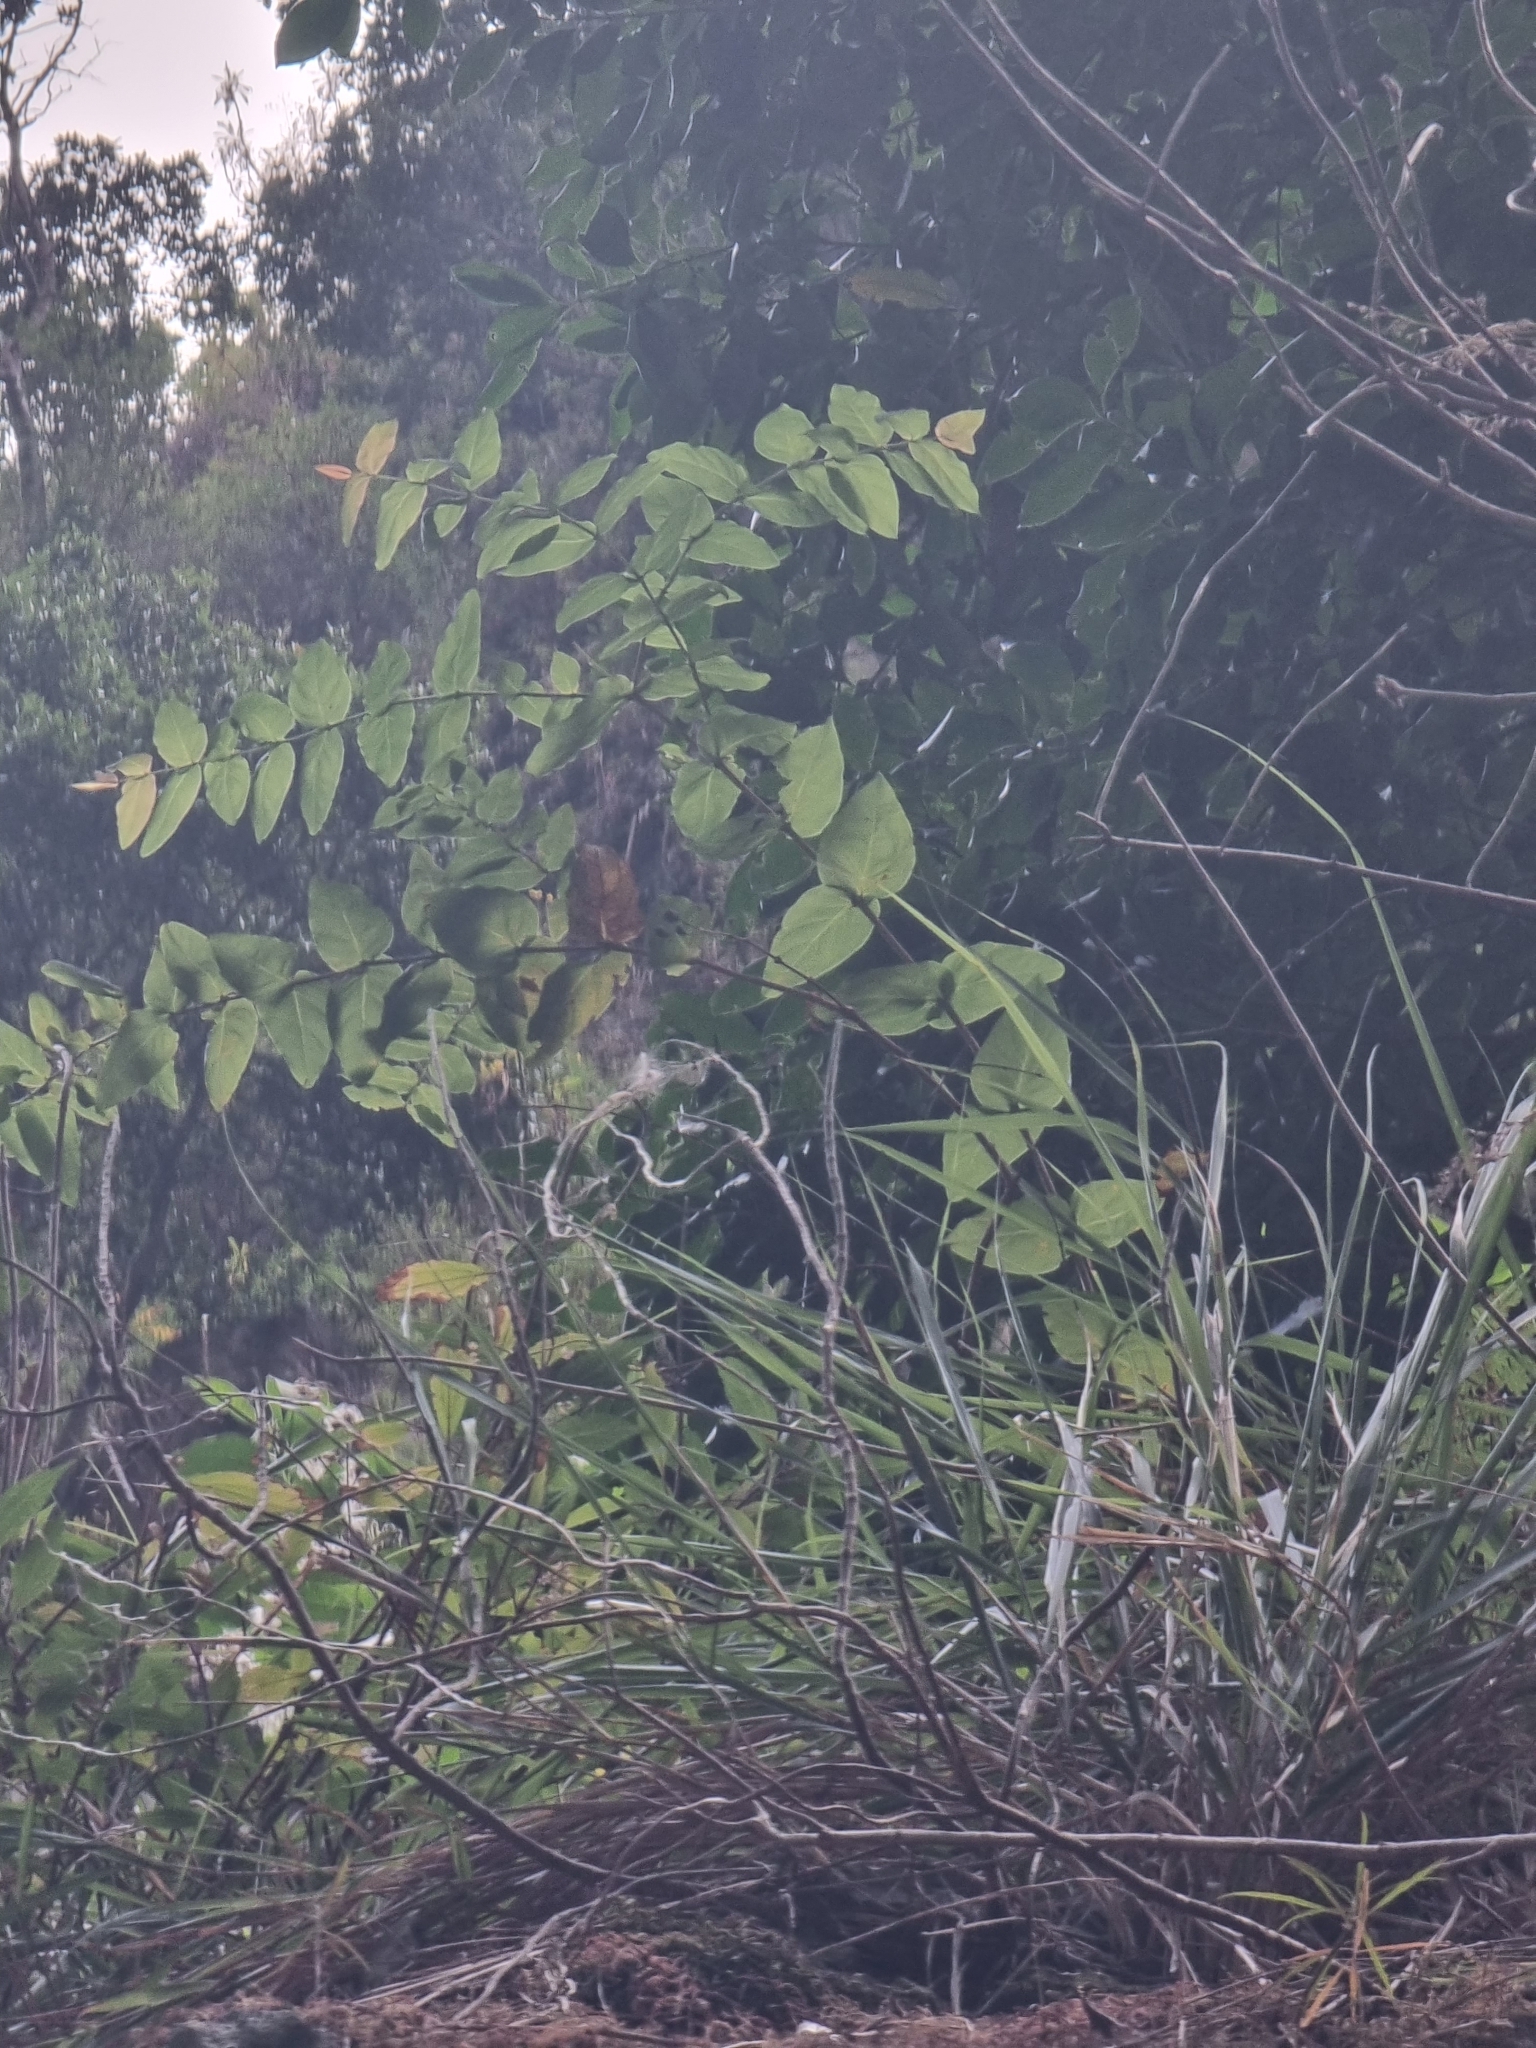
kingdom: Plantae
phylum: Tracheophyta
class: Magnoliopsida
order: Malpighiales
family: Hypericaceae
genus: Hypericum
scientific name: Hypericum grandifolium
